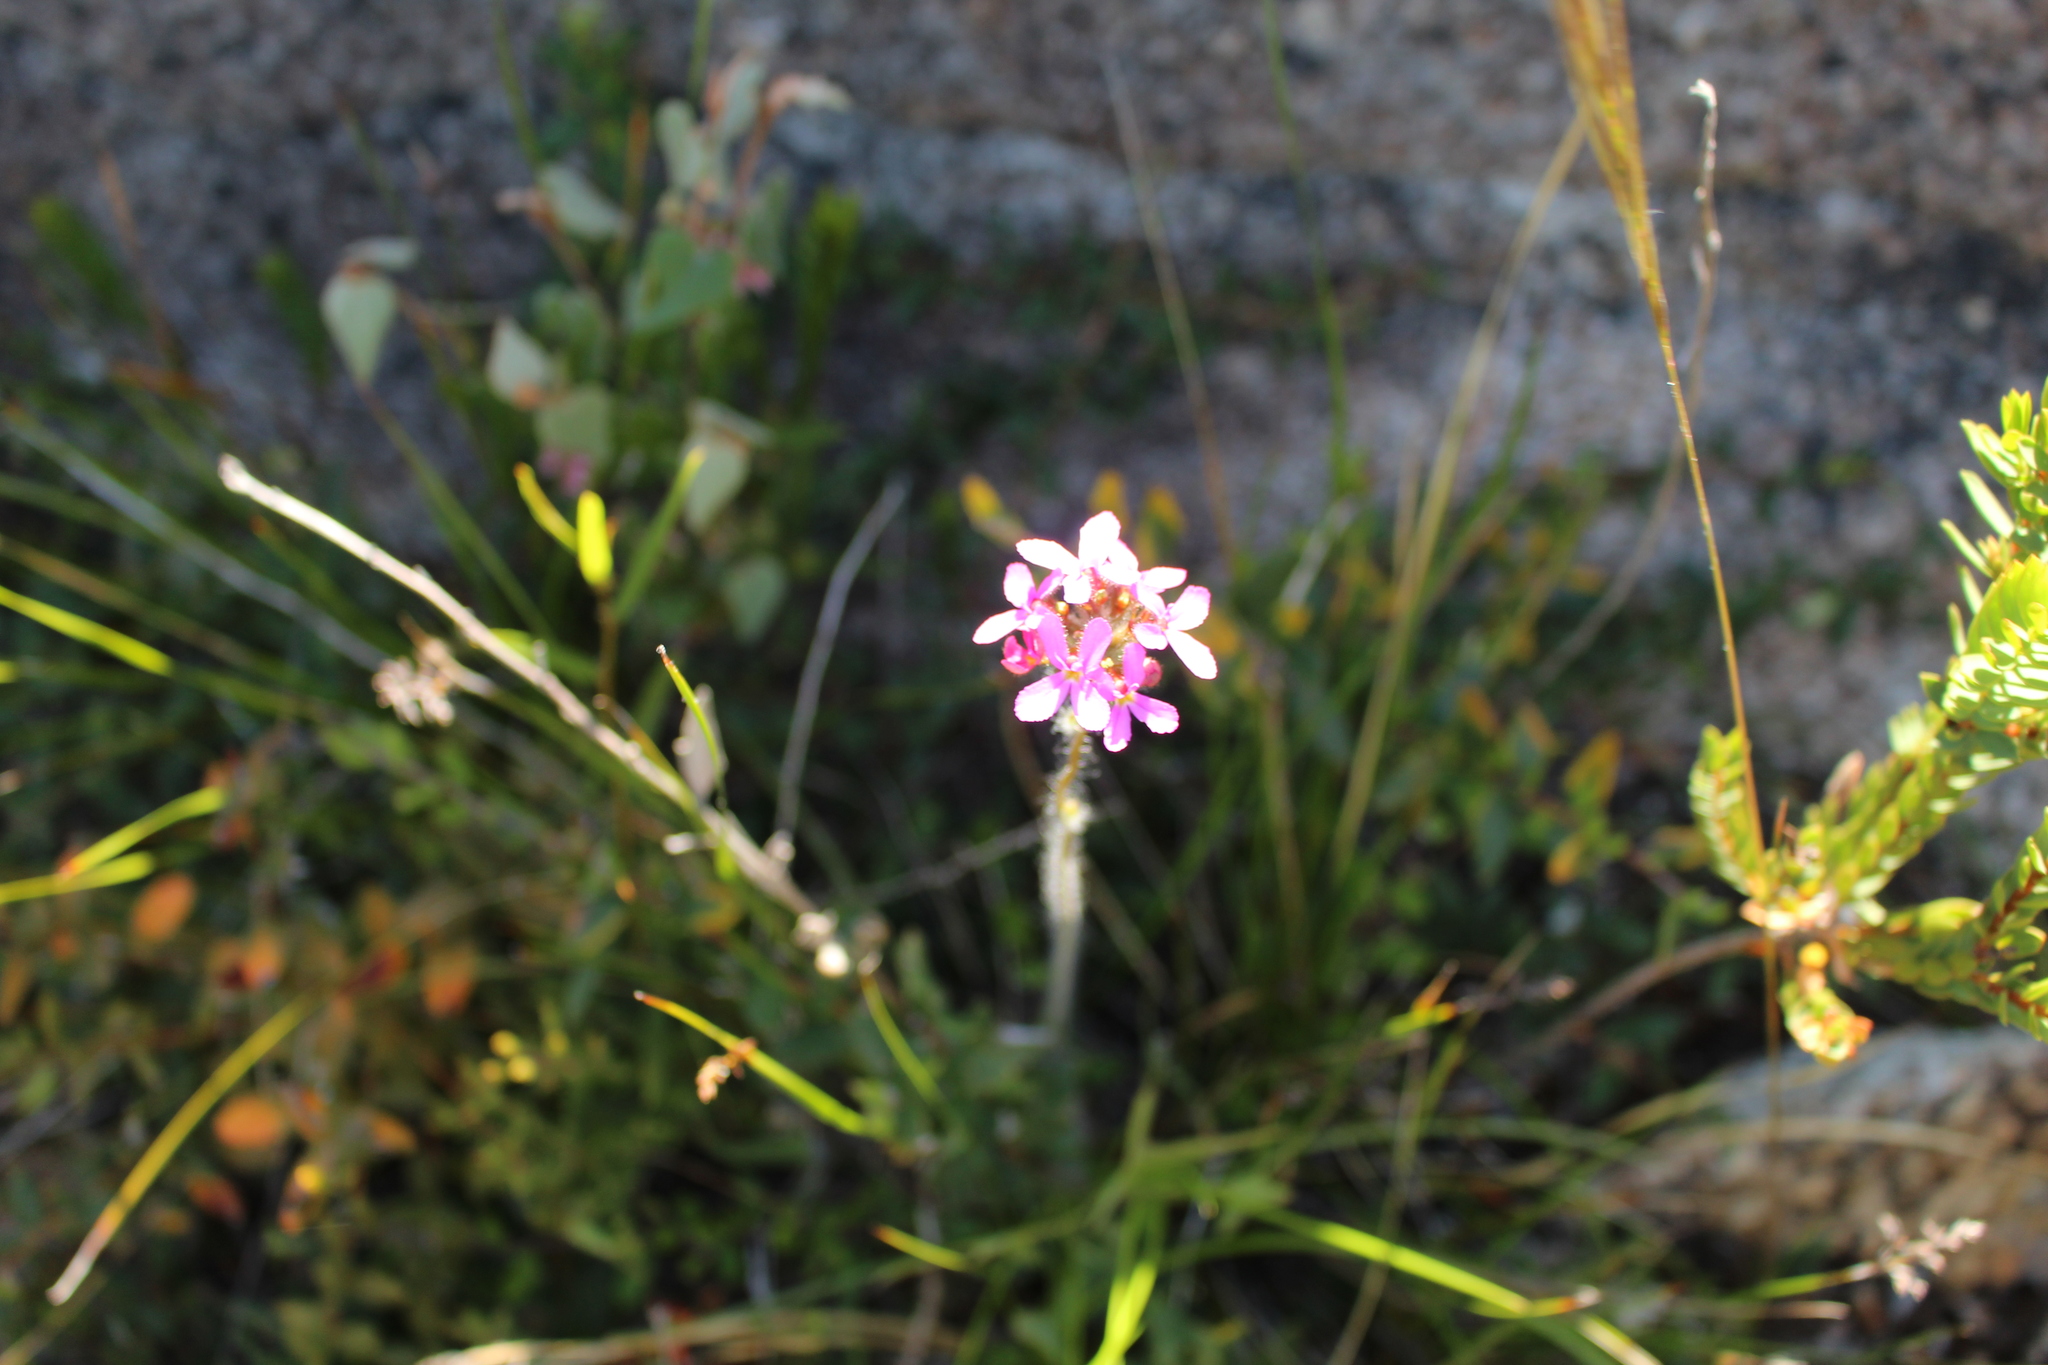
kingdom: Plantae
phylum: Tracheophyta
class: Magnoliopsida
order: Asterales
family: Stylidiaceae
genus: Stylidium
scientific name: Stylidium hirsutum
